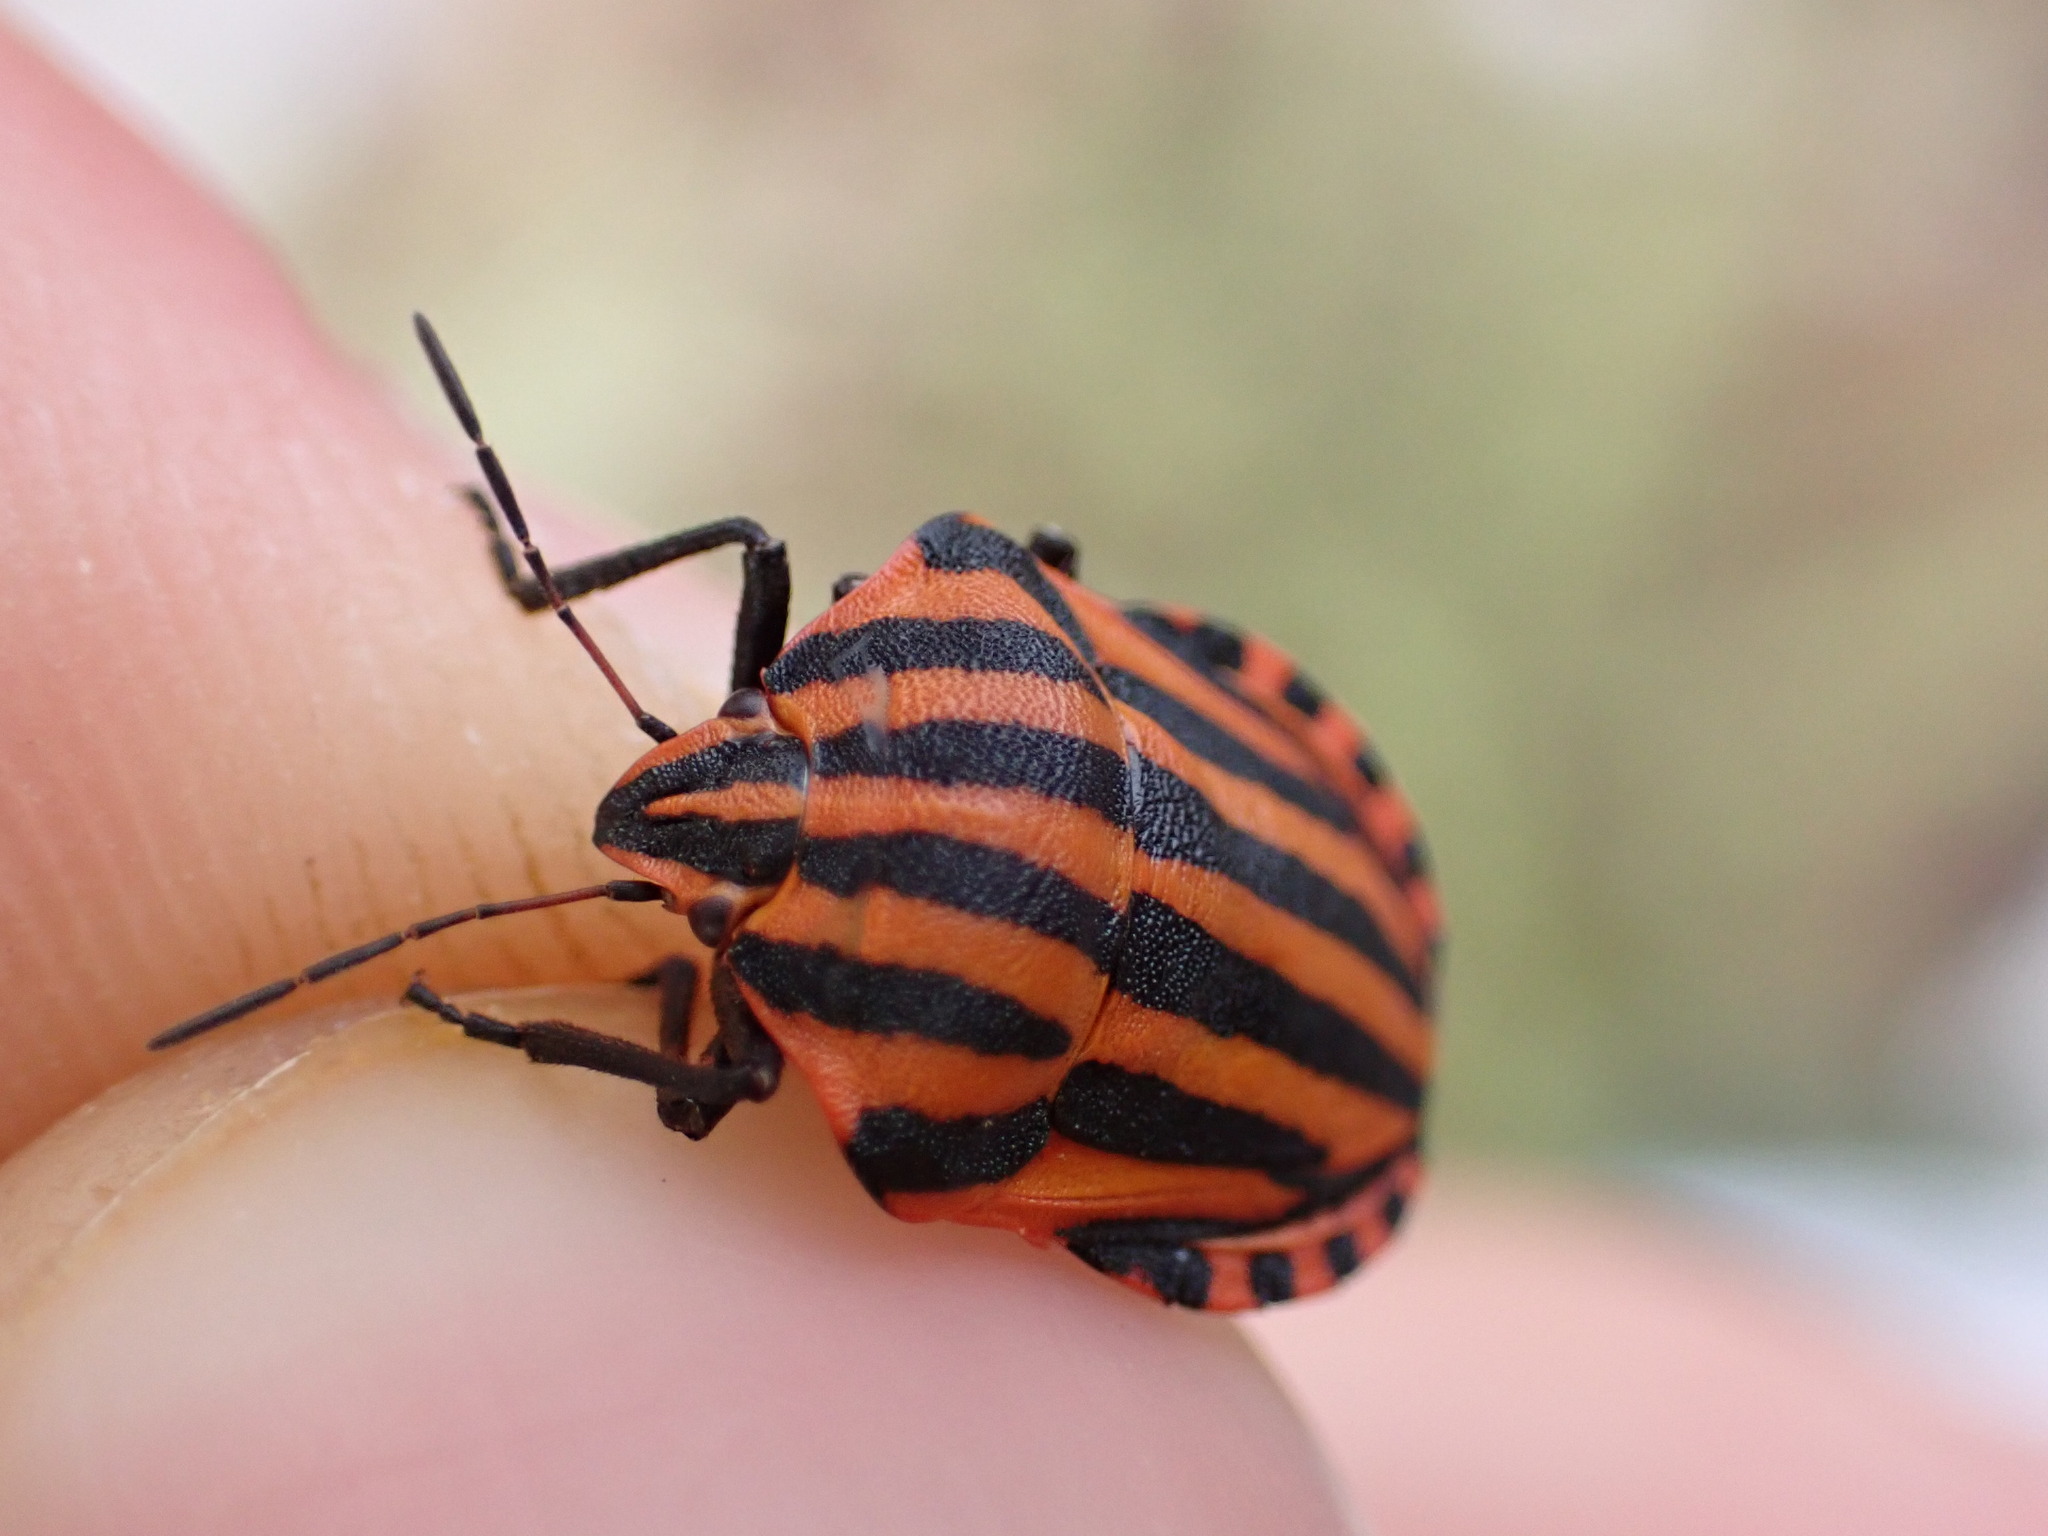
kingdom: Animalia
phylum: Arthropoda
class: Insecta
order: Hemiptera
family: Pentatomidae
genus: Graphosoma
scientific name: Graphosoma italicum
